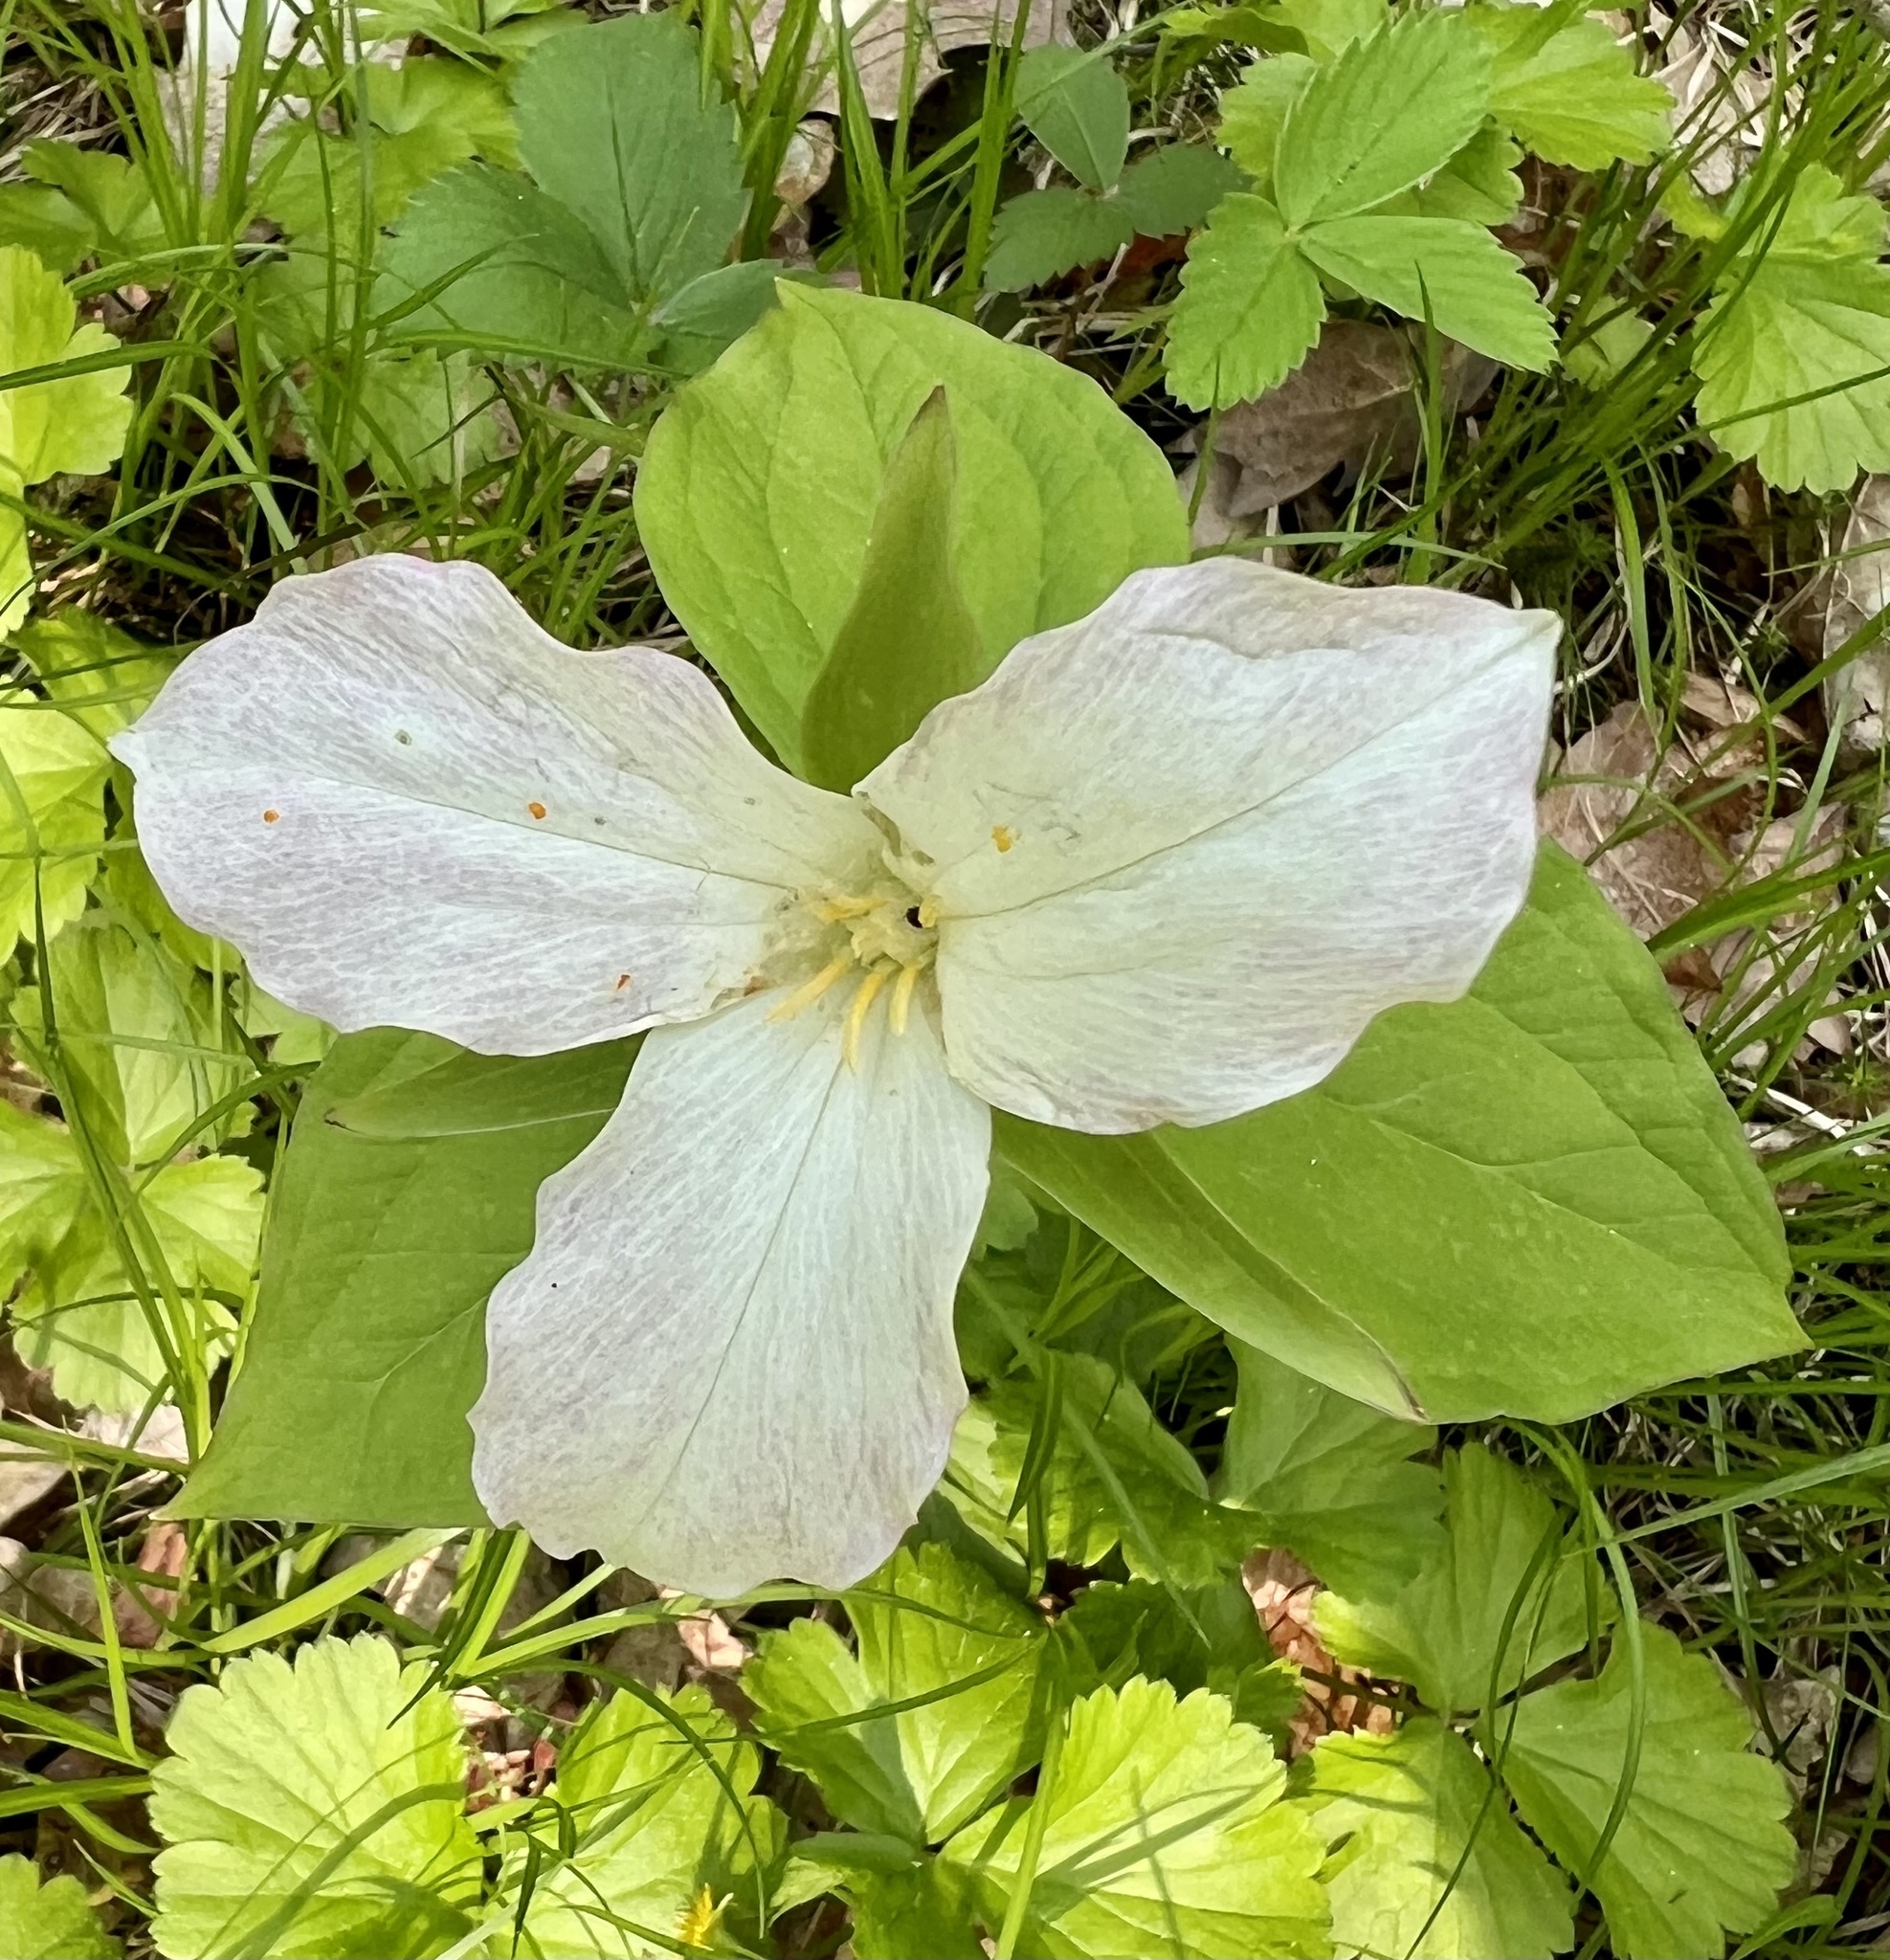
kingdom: Plantae
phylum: Tracheophyta
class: Liliopsida
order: Liliales
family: Melanthiaceae
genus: Trillium
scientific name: Trillium grandiflorum
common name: Great white trillium
